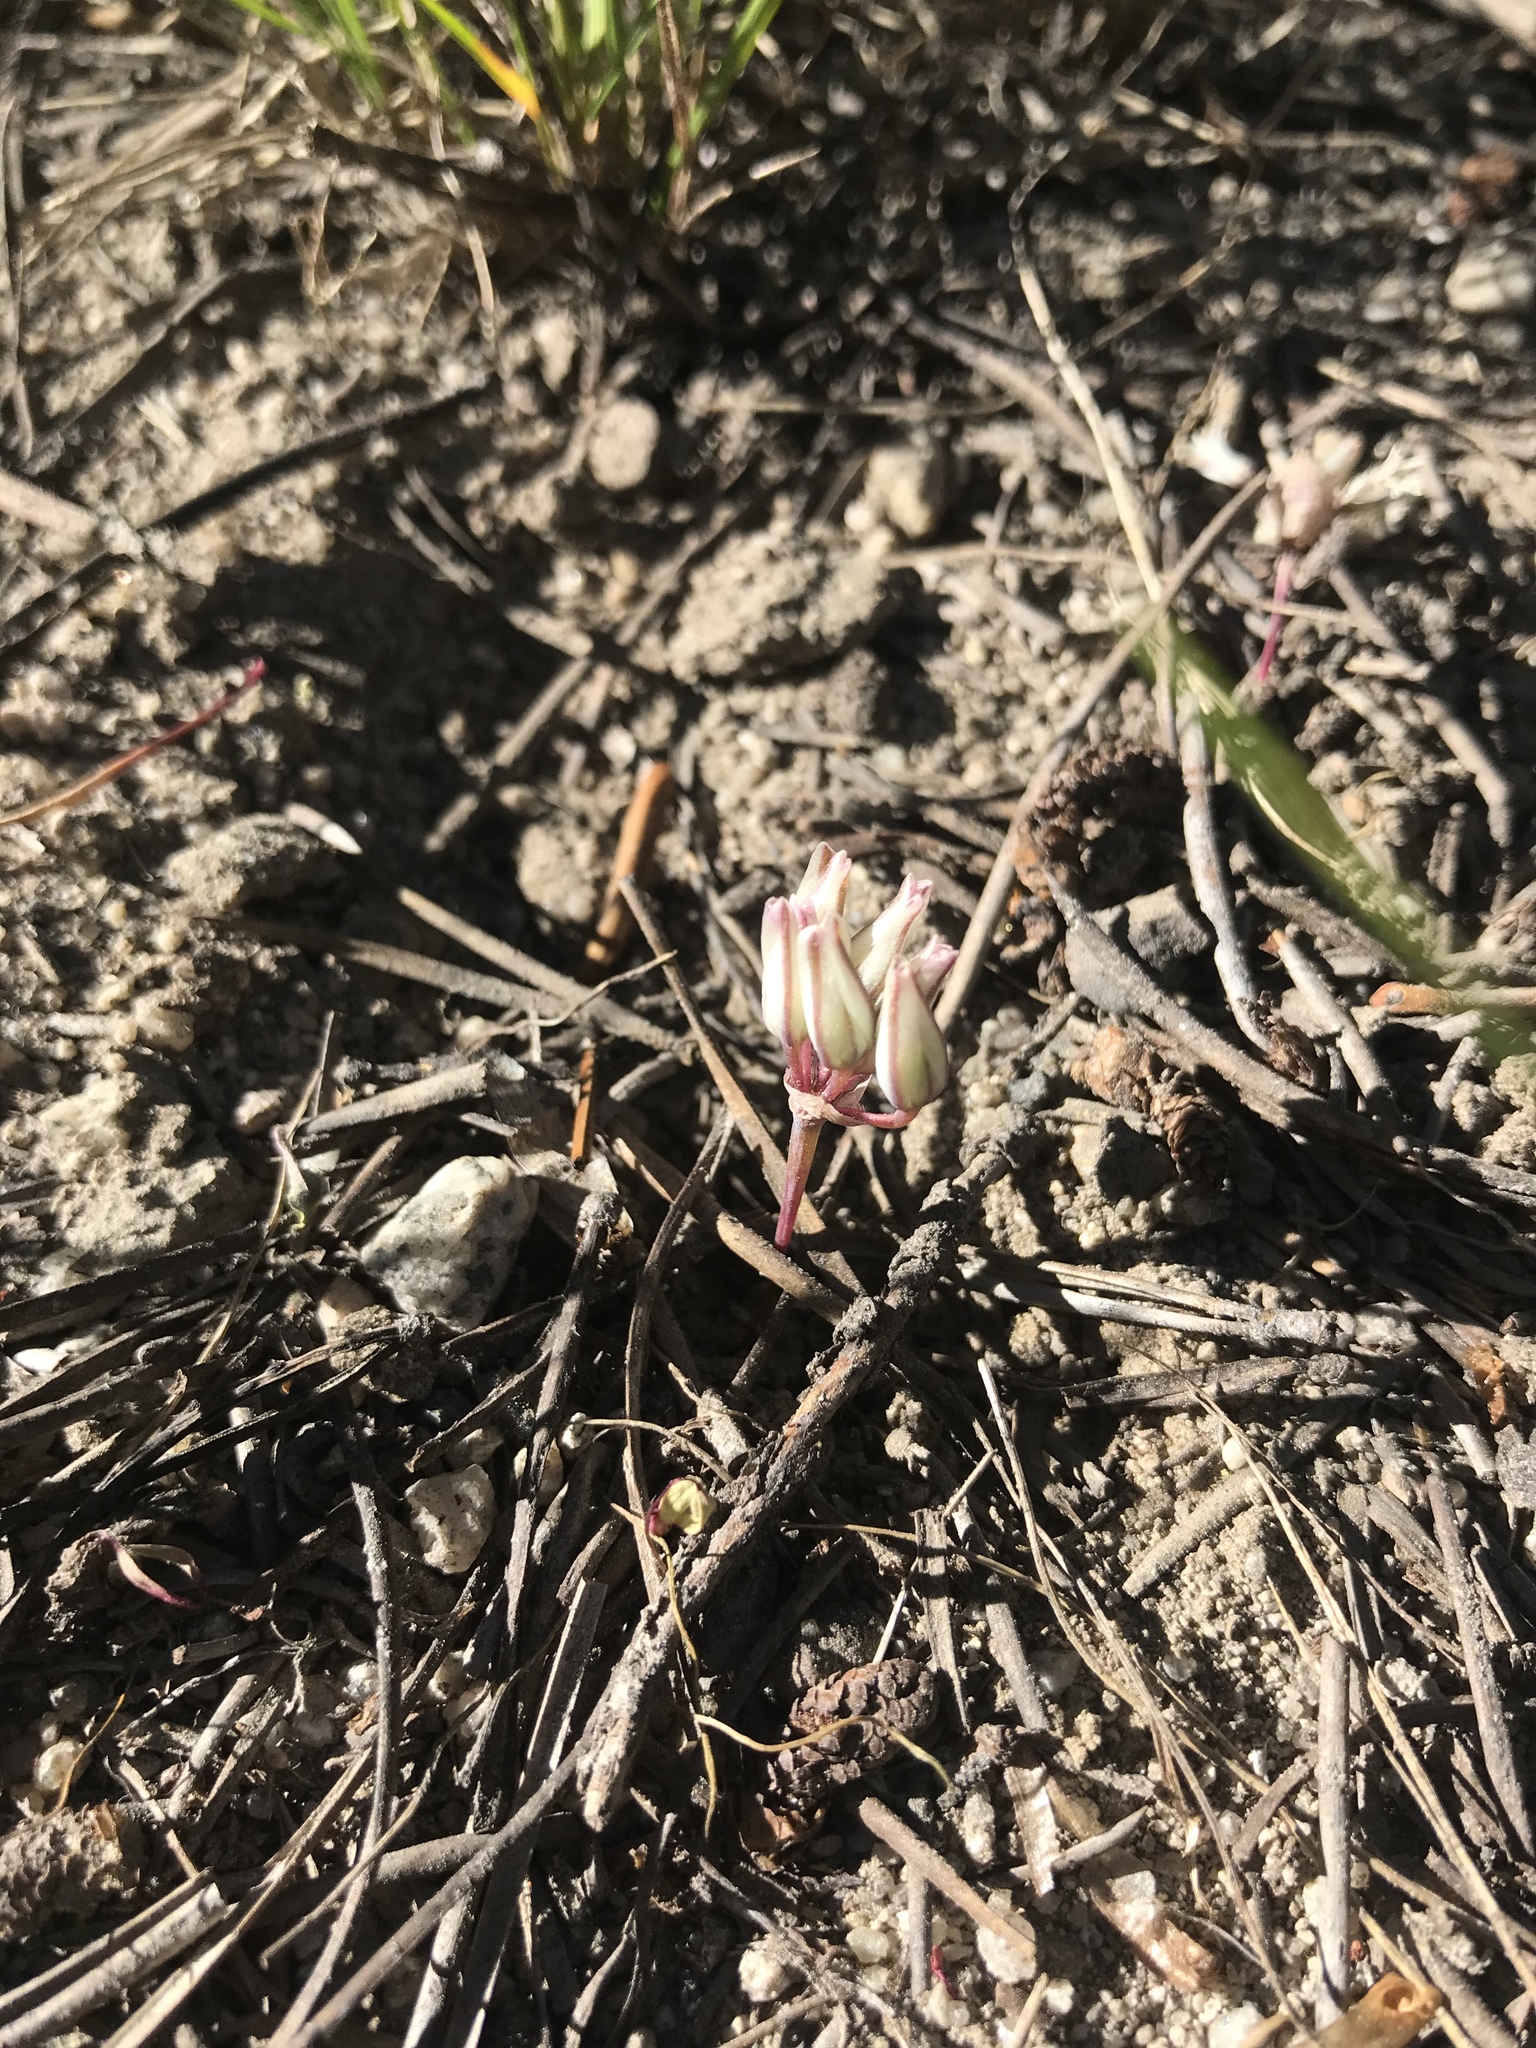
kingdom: Plantae
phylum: Tracheophyta
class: Liliopsida
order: Asparagales
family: Amaryllidaceae
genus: Allium
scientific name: Allium obtusum
